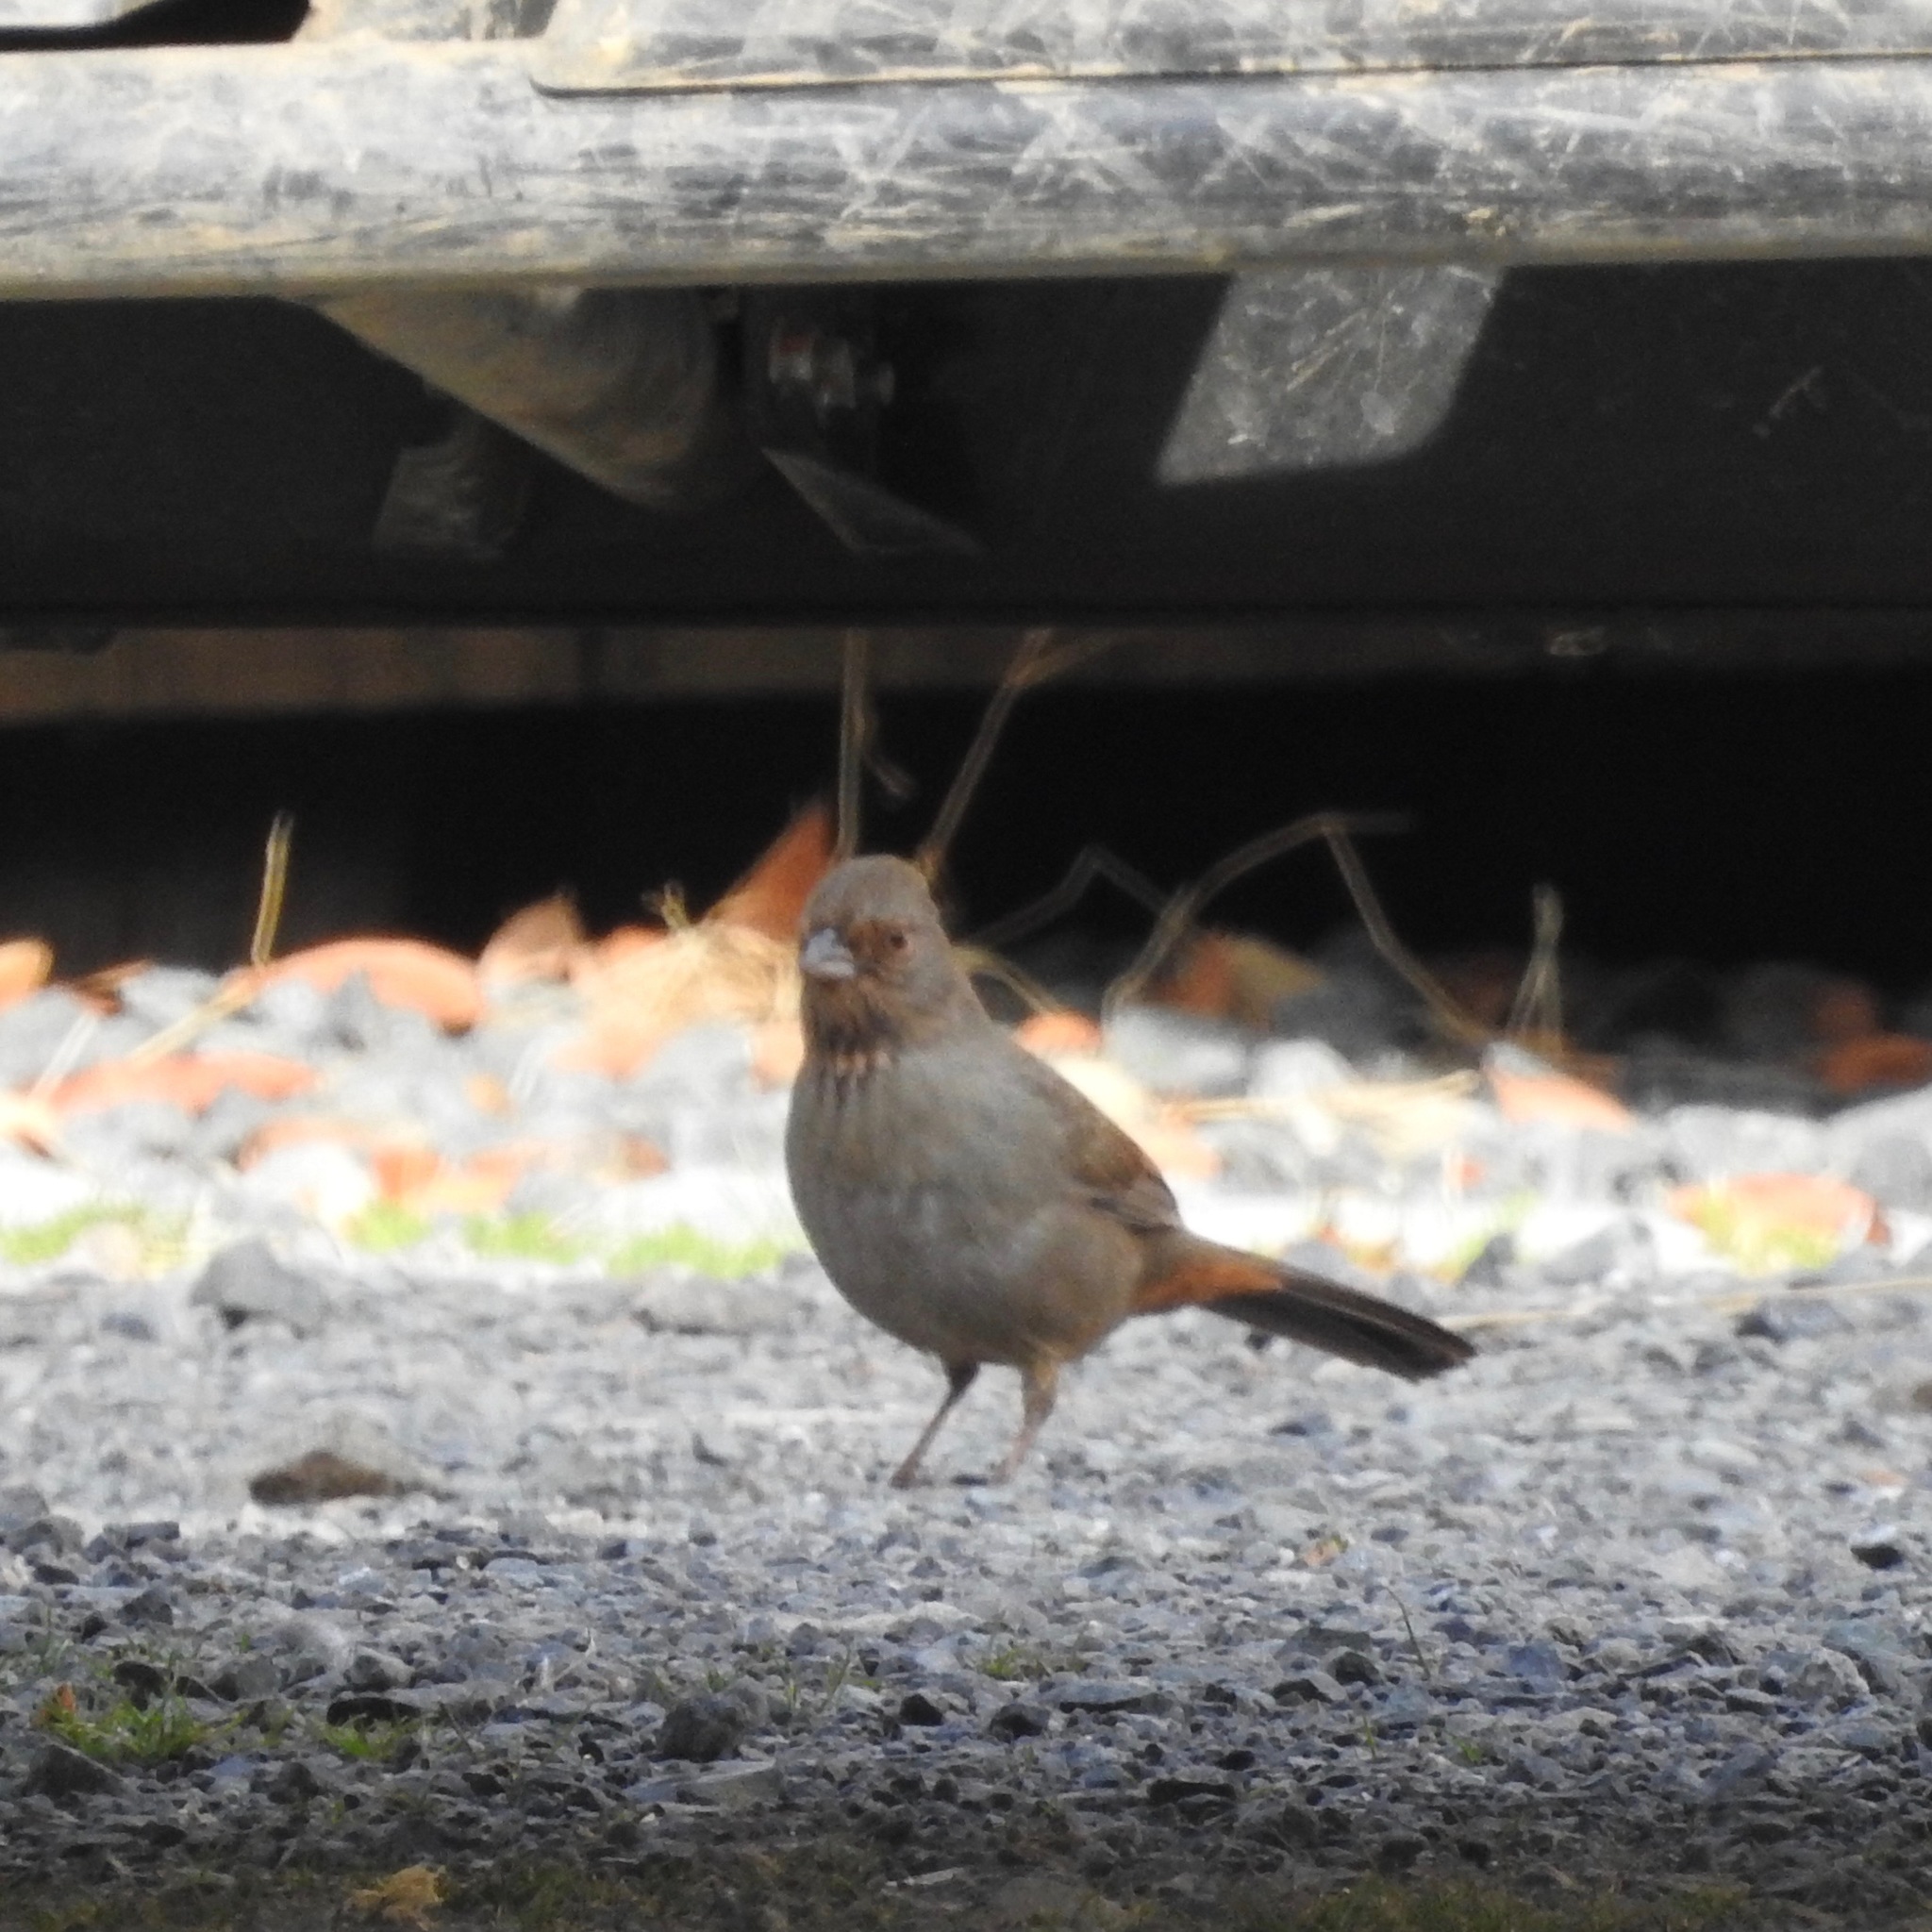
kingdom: Animalia
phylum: Chordata
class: Aves
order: Passeriformes
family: Passerellidae
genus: Melozone
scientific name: Melozone crissalis
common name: California towhee
